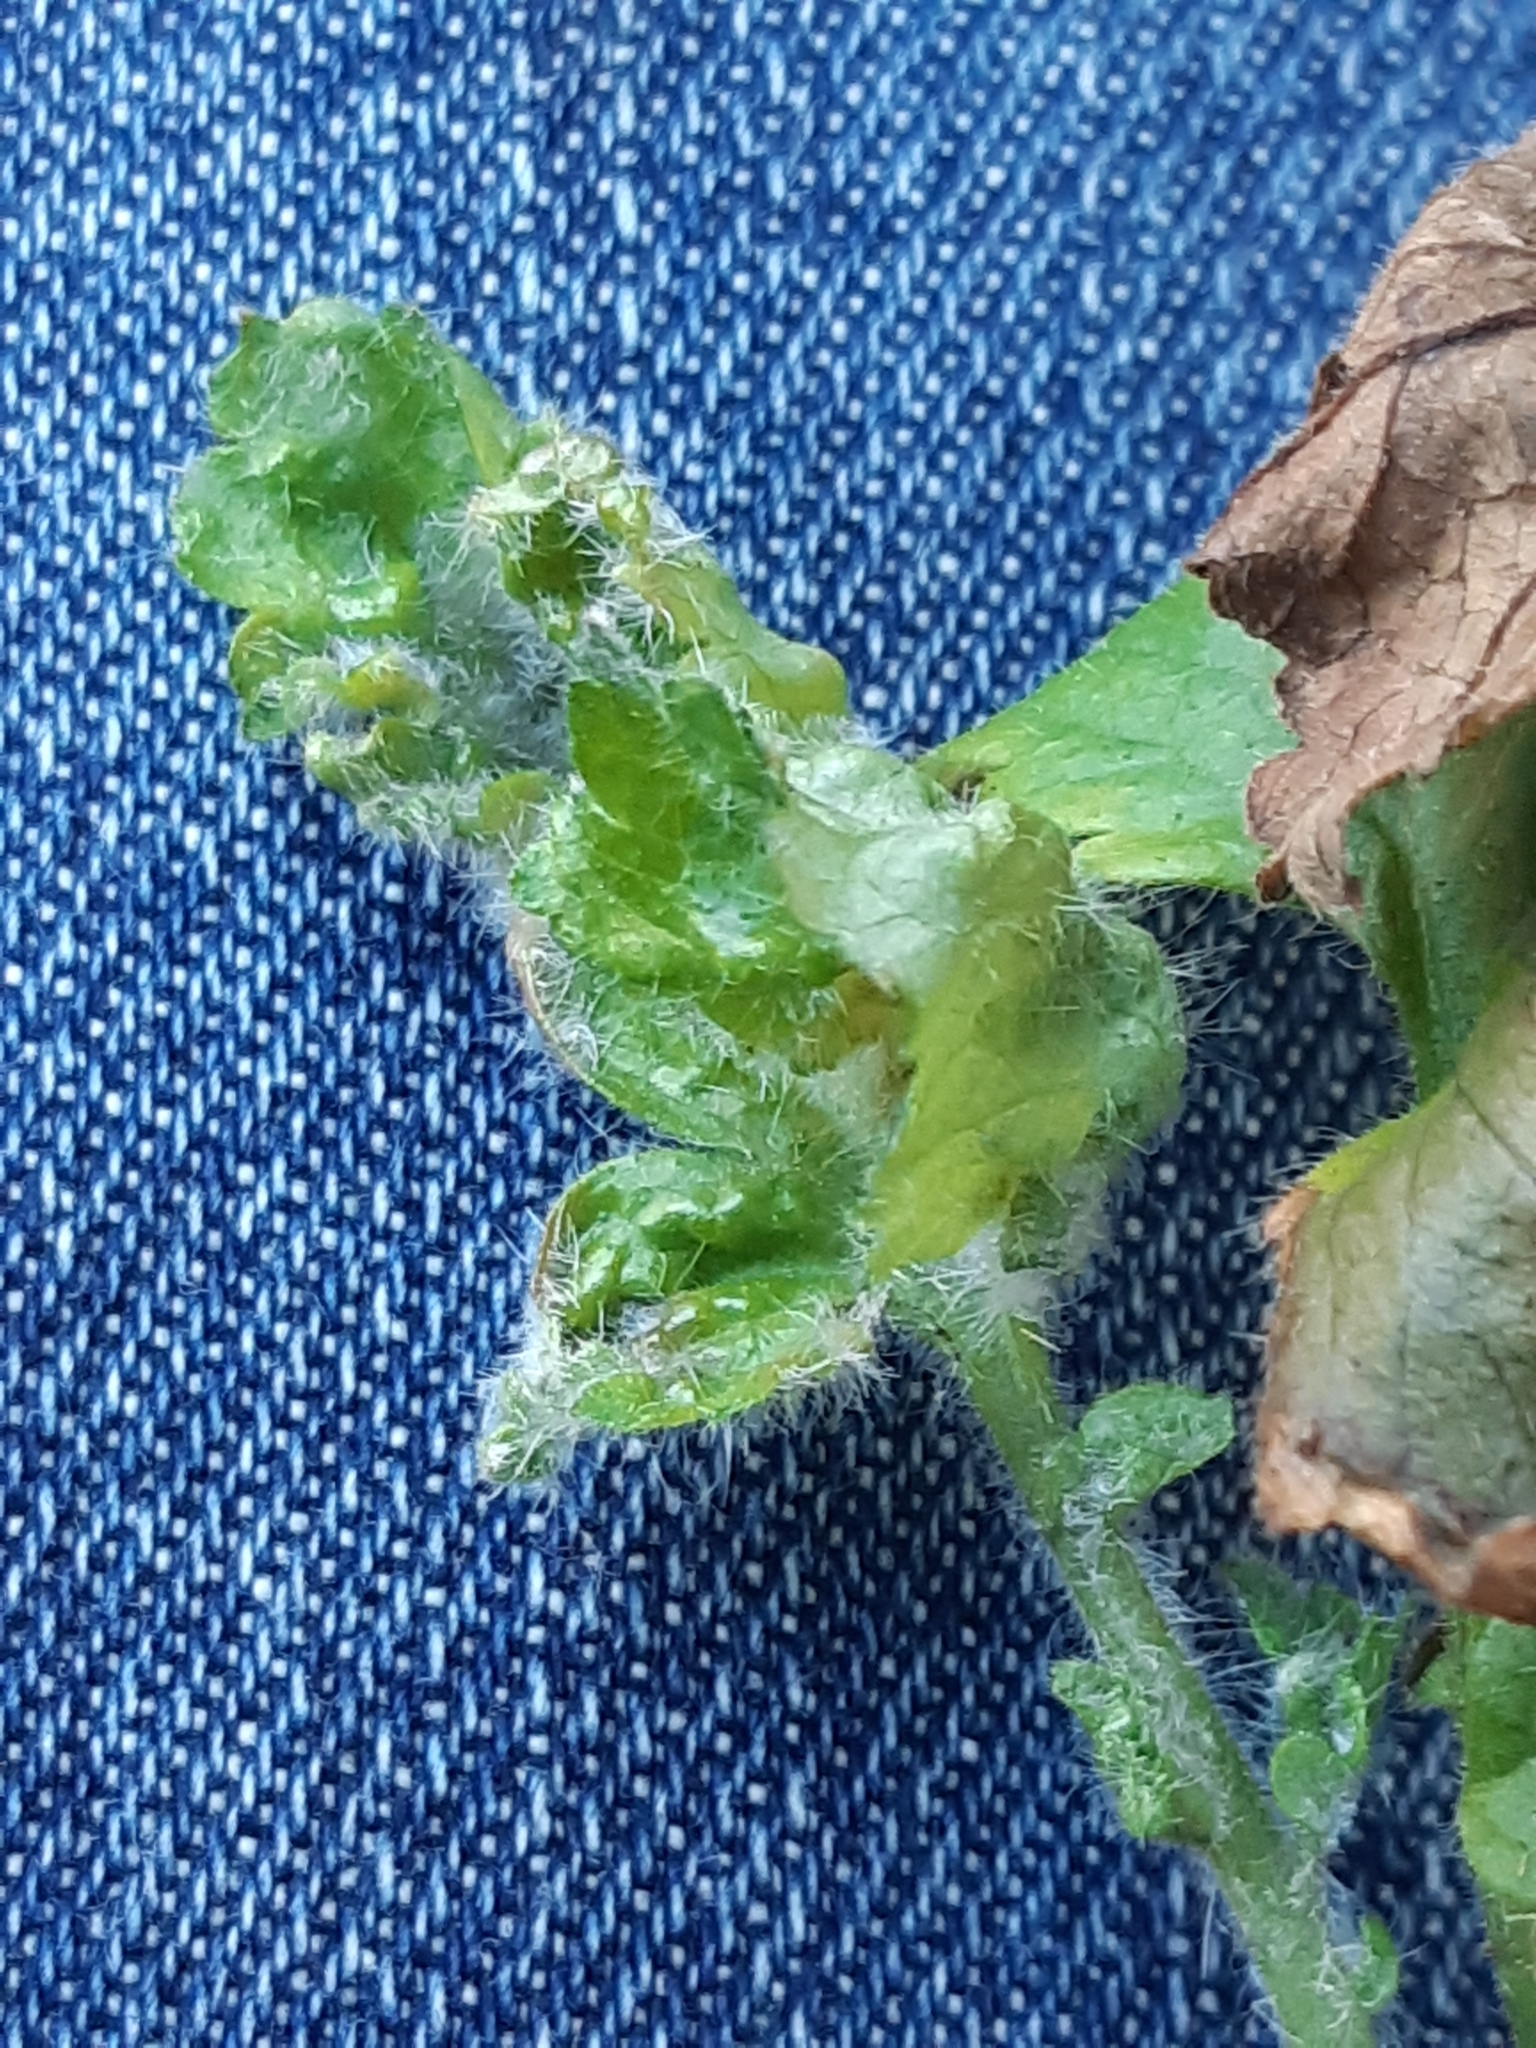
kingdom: Animalia
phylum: Arthropoda
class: Arachnida
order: Trombidiformes
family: Eriophyidae
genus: Cecidophyes
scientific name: Cecidophyes nudus
